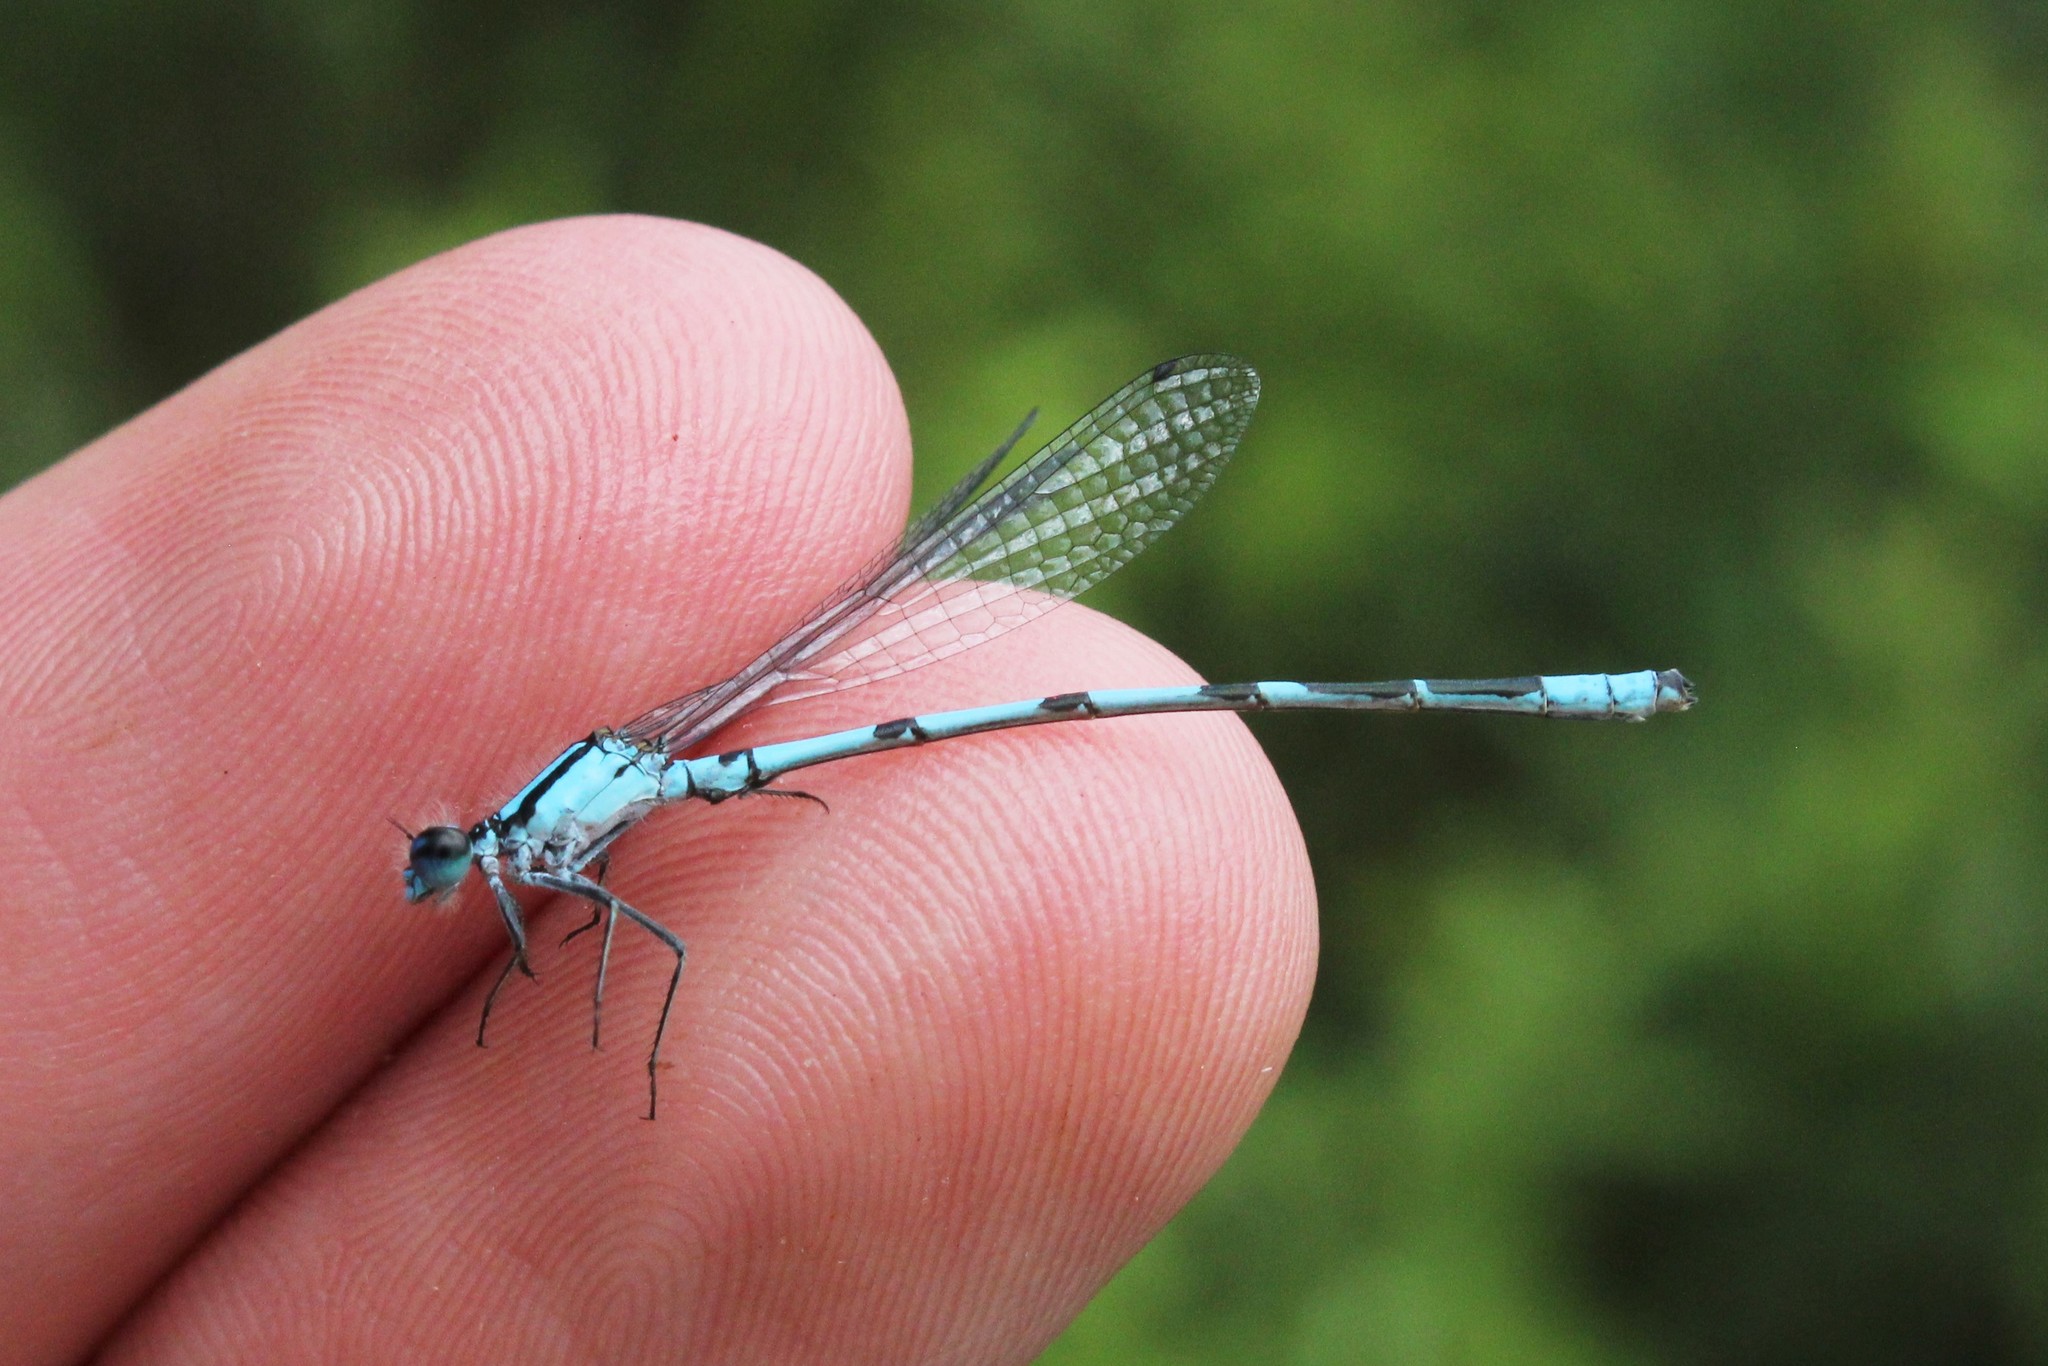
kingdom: Animalia
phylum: Arthropoda
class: Insecta
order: Odonata
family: Coenagrionidae
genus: Enallagma
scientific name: Enallagma hageni
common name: Hagen's bluet
